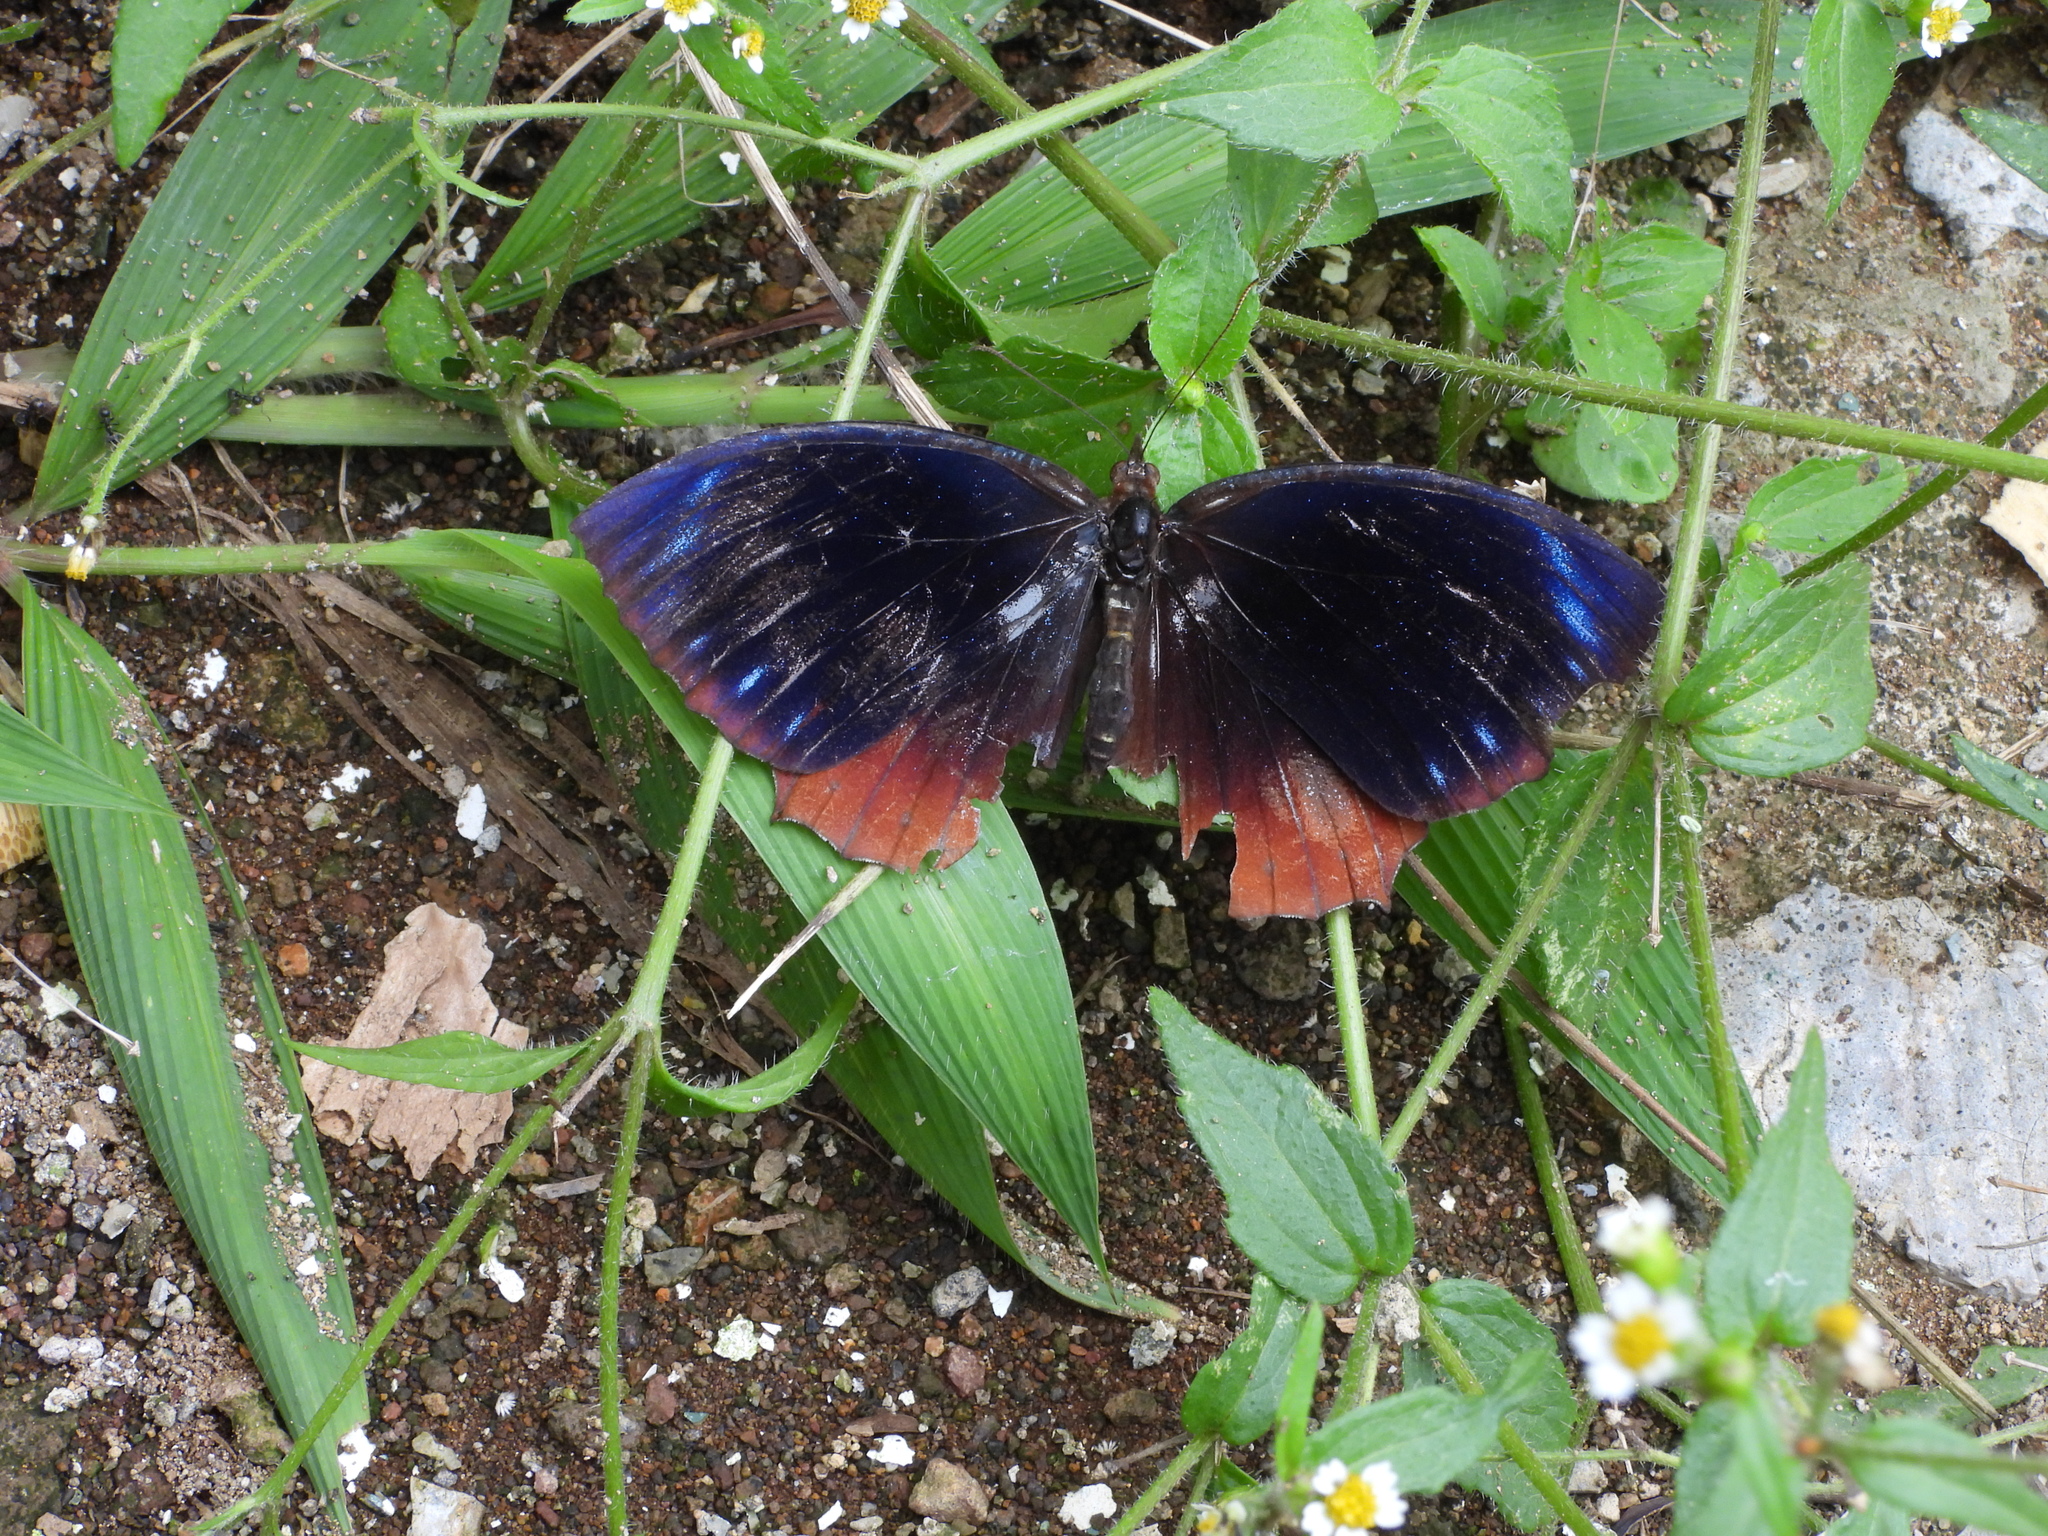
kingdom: Animalia
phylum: Arthropoda
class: Insecta
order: Lepidoptera
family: Nymphalidae
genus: Elymnias
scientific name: Elymnias hypermnestra
